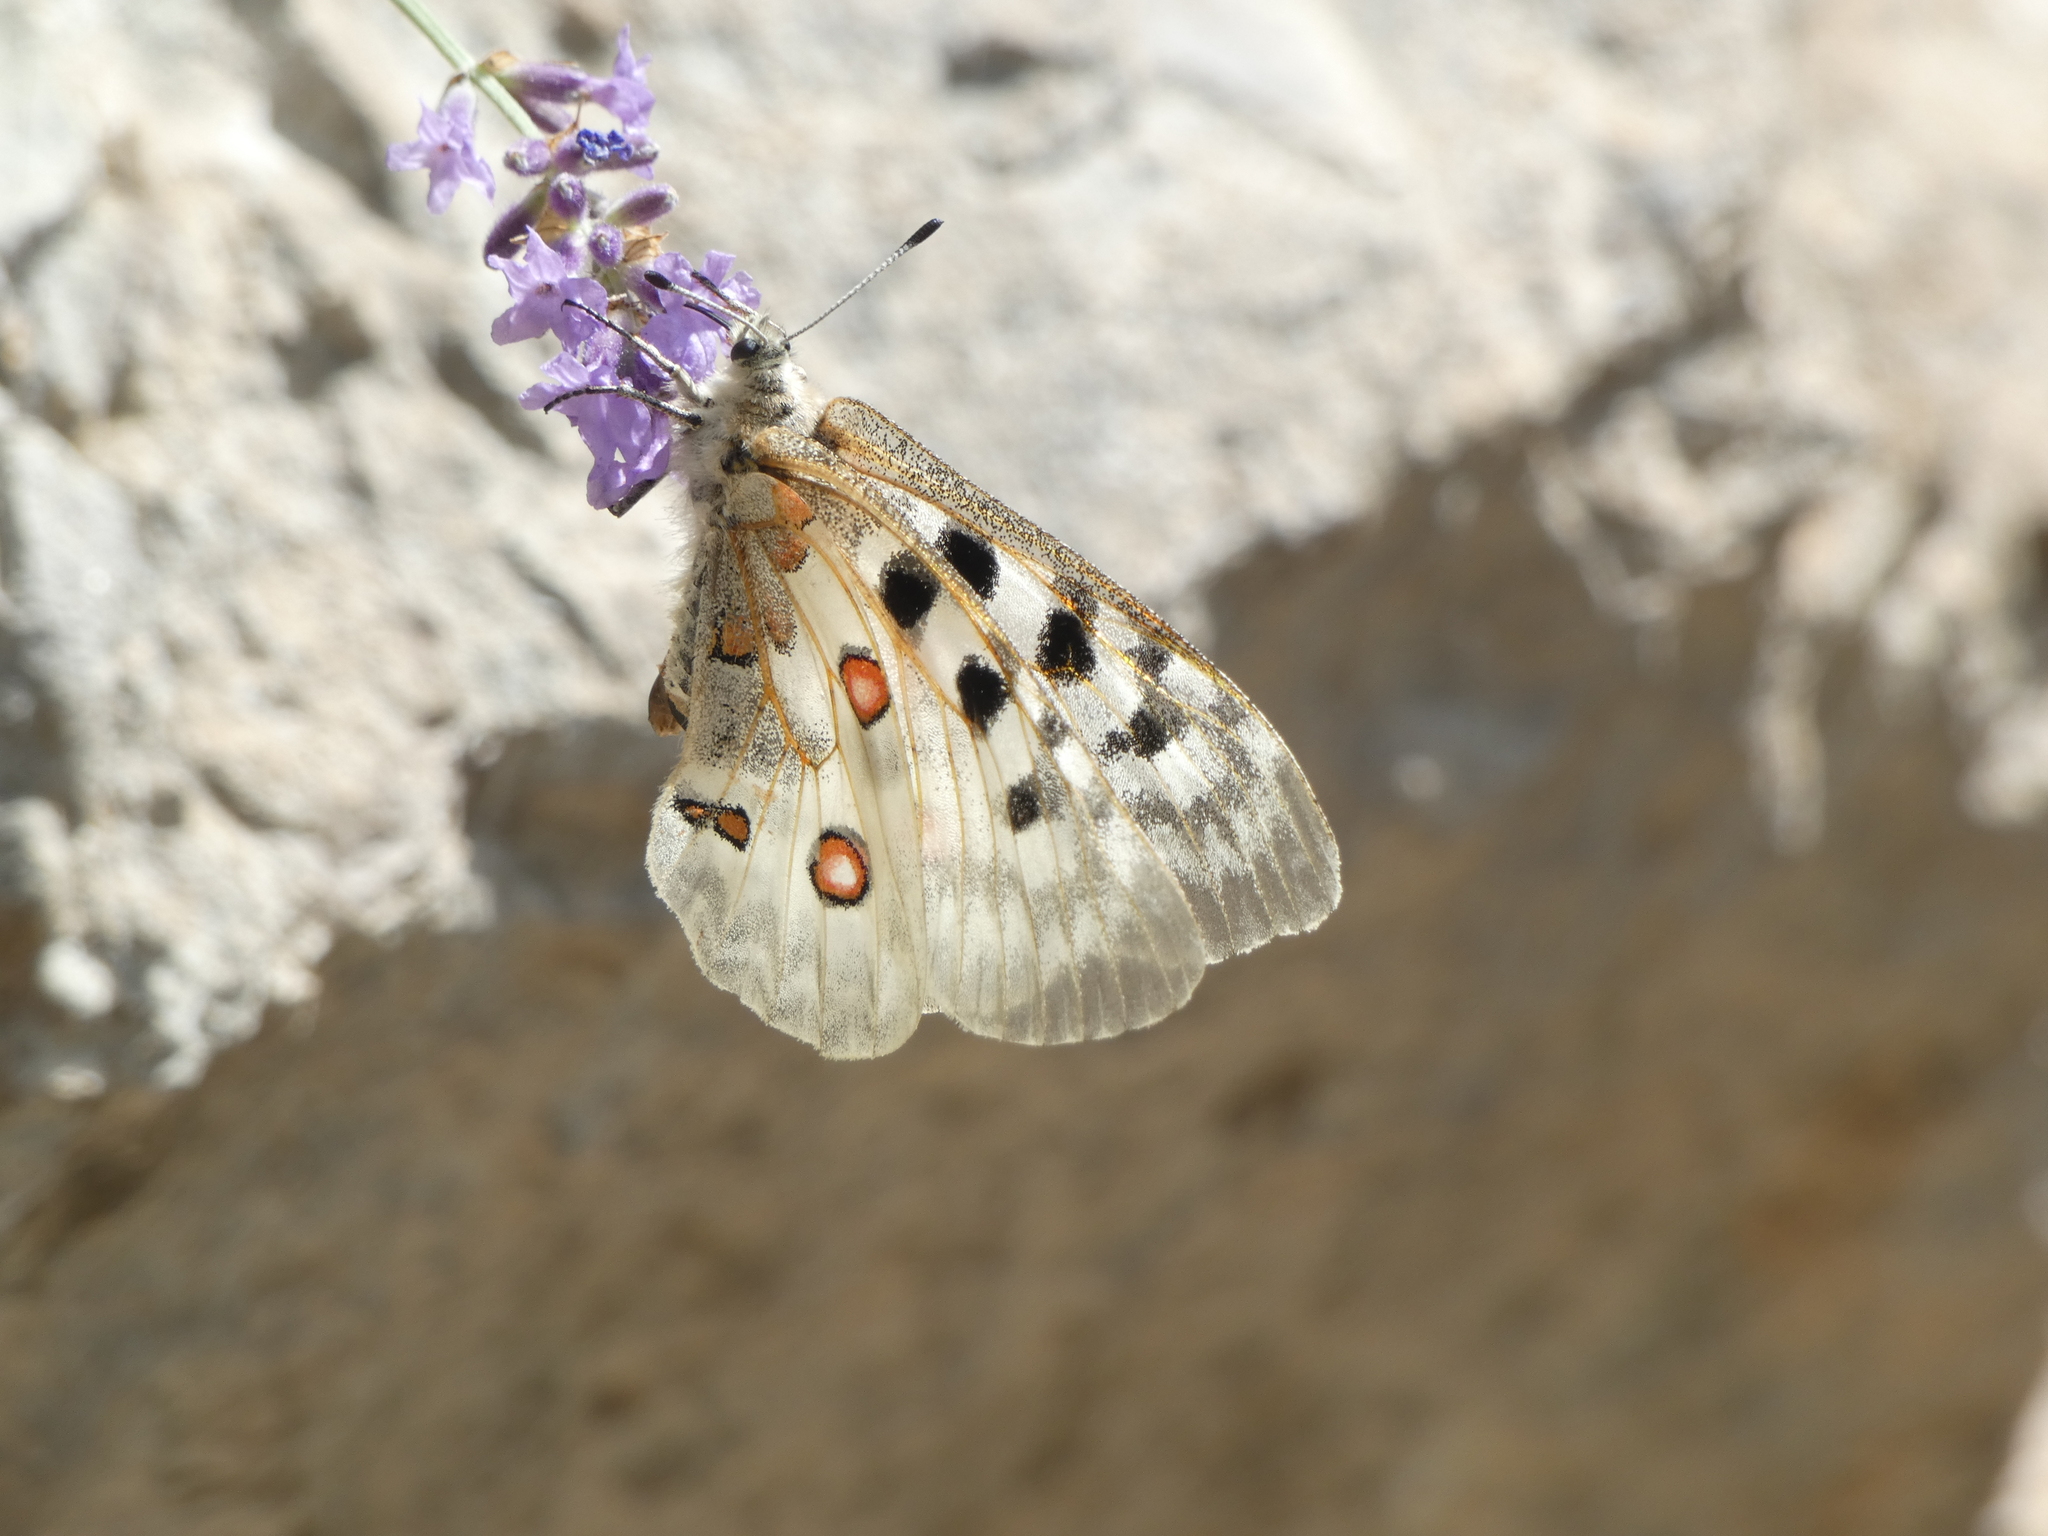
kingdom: Animalia
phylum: Arthropoda
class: Insecta
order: Lepidoptera
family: Papilionidae
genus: Parnassius
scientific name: Parnassius apollo
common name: Apollo
